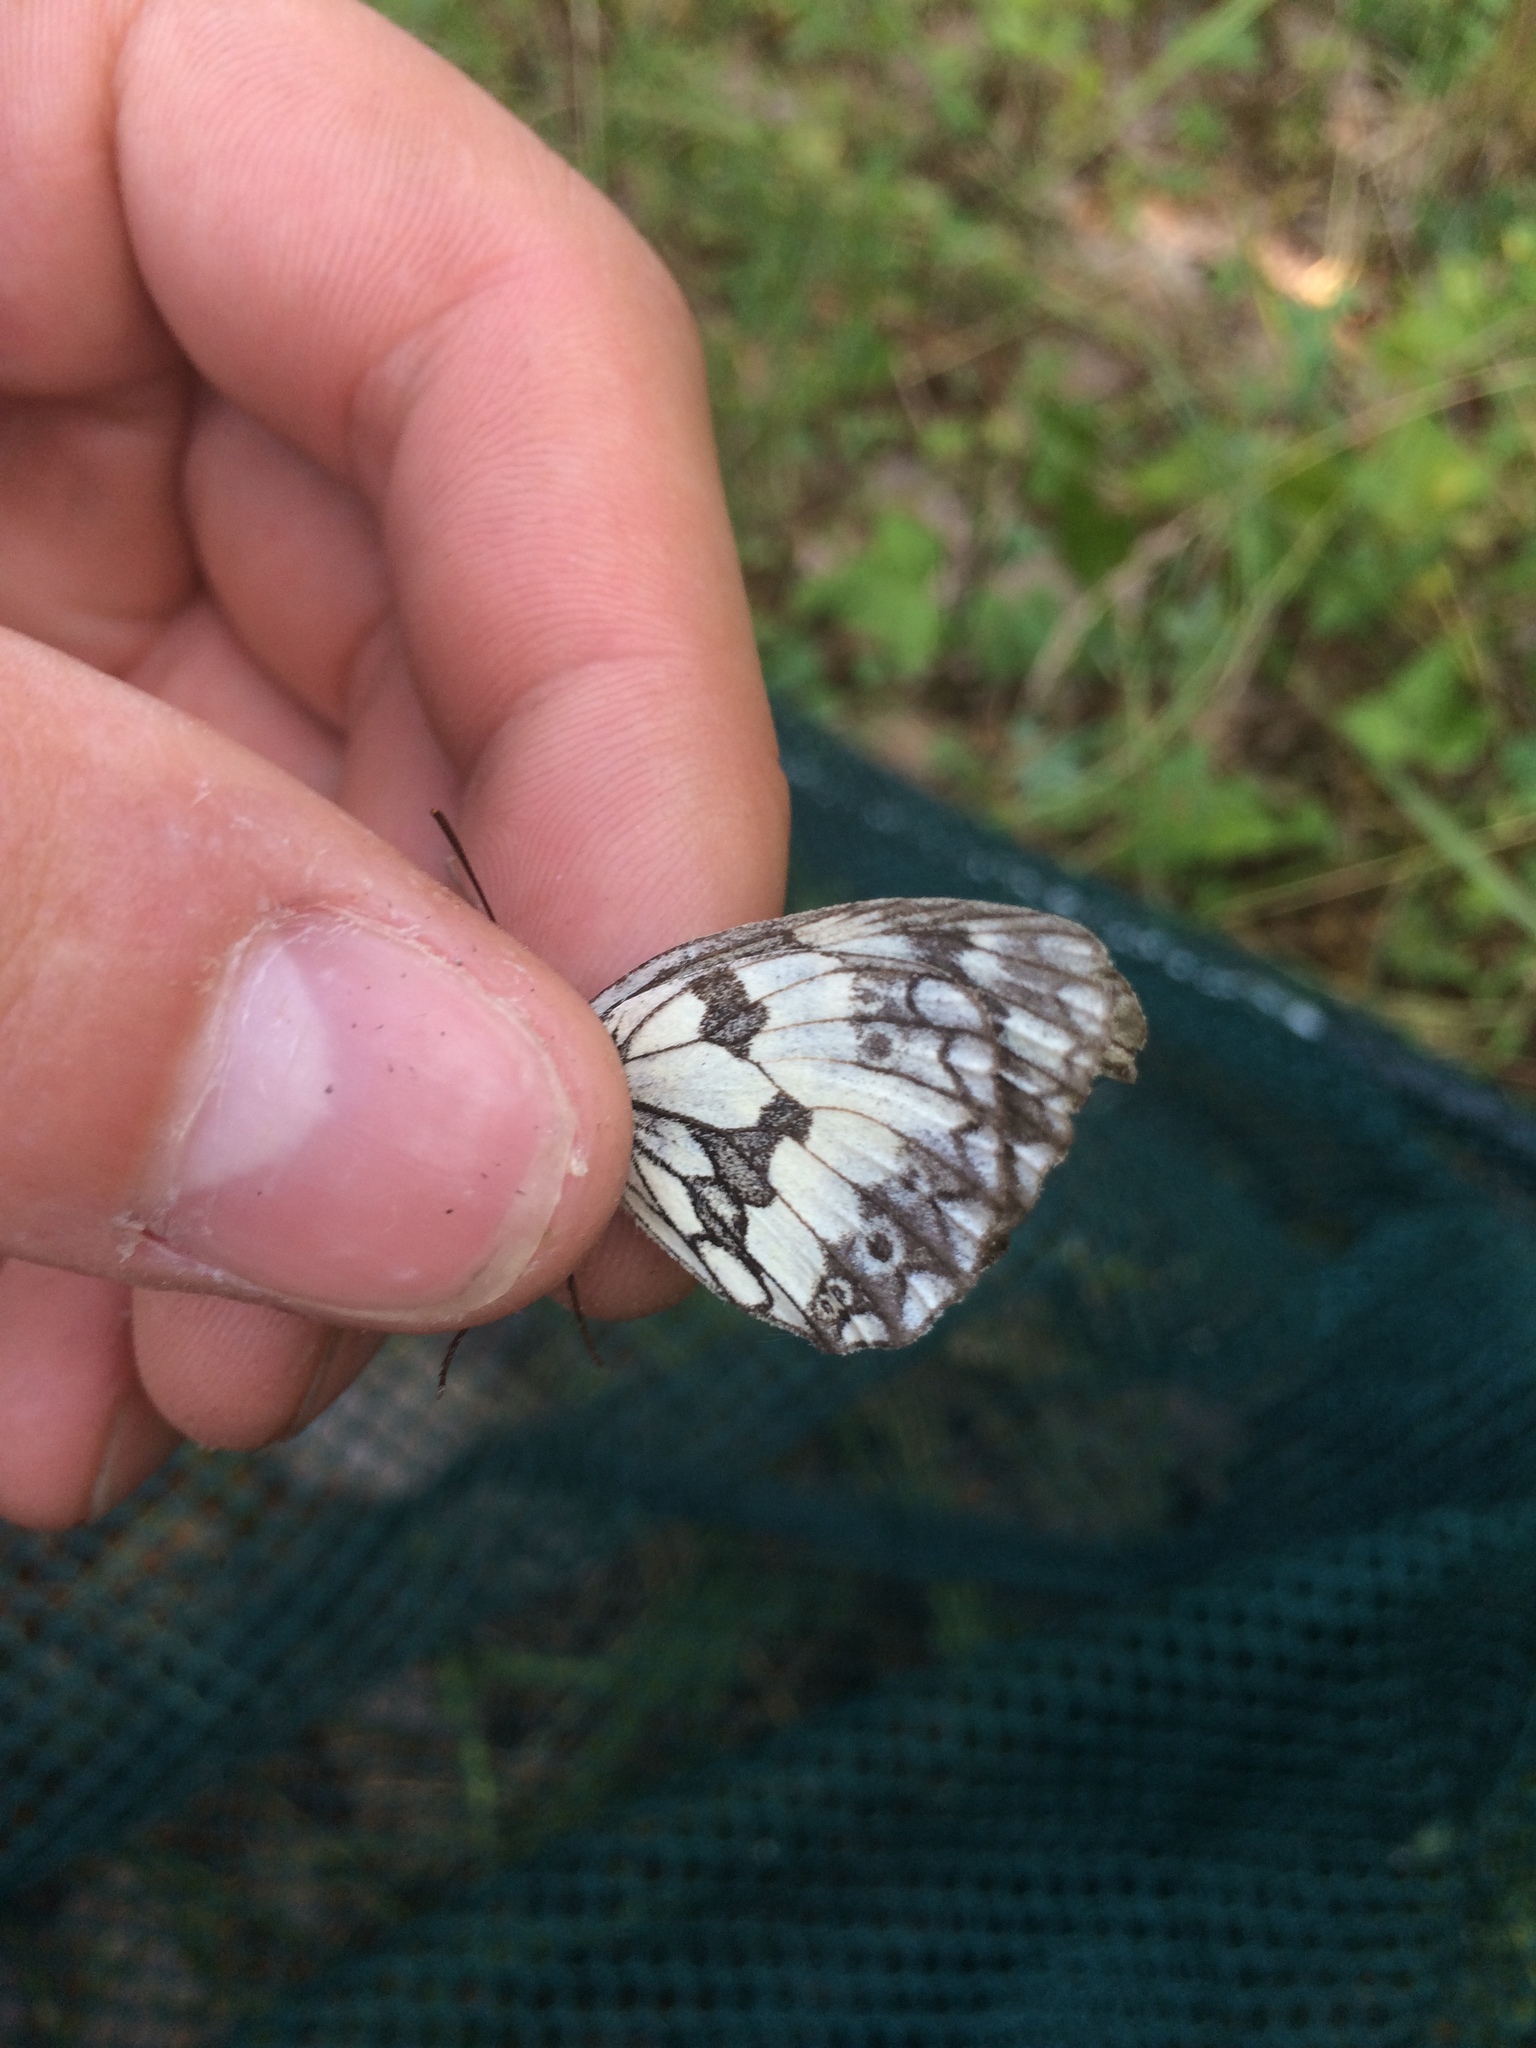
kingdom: Animalia
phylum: Arthropoda
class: Insecta
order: Lepidoptera
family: Nymphalidae
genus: Melanargia
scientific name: Melanargia galathea
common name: Marbled white
